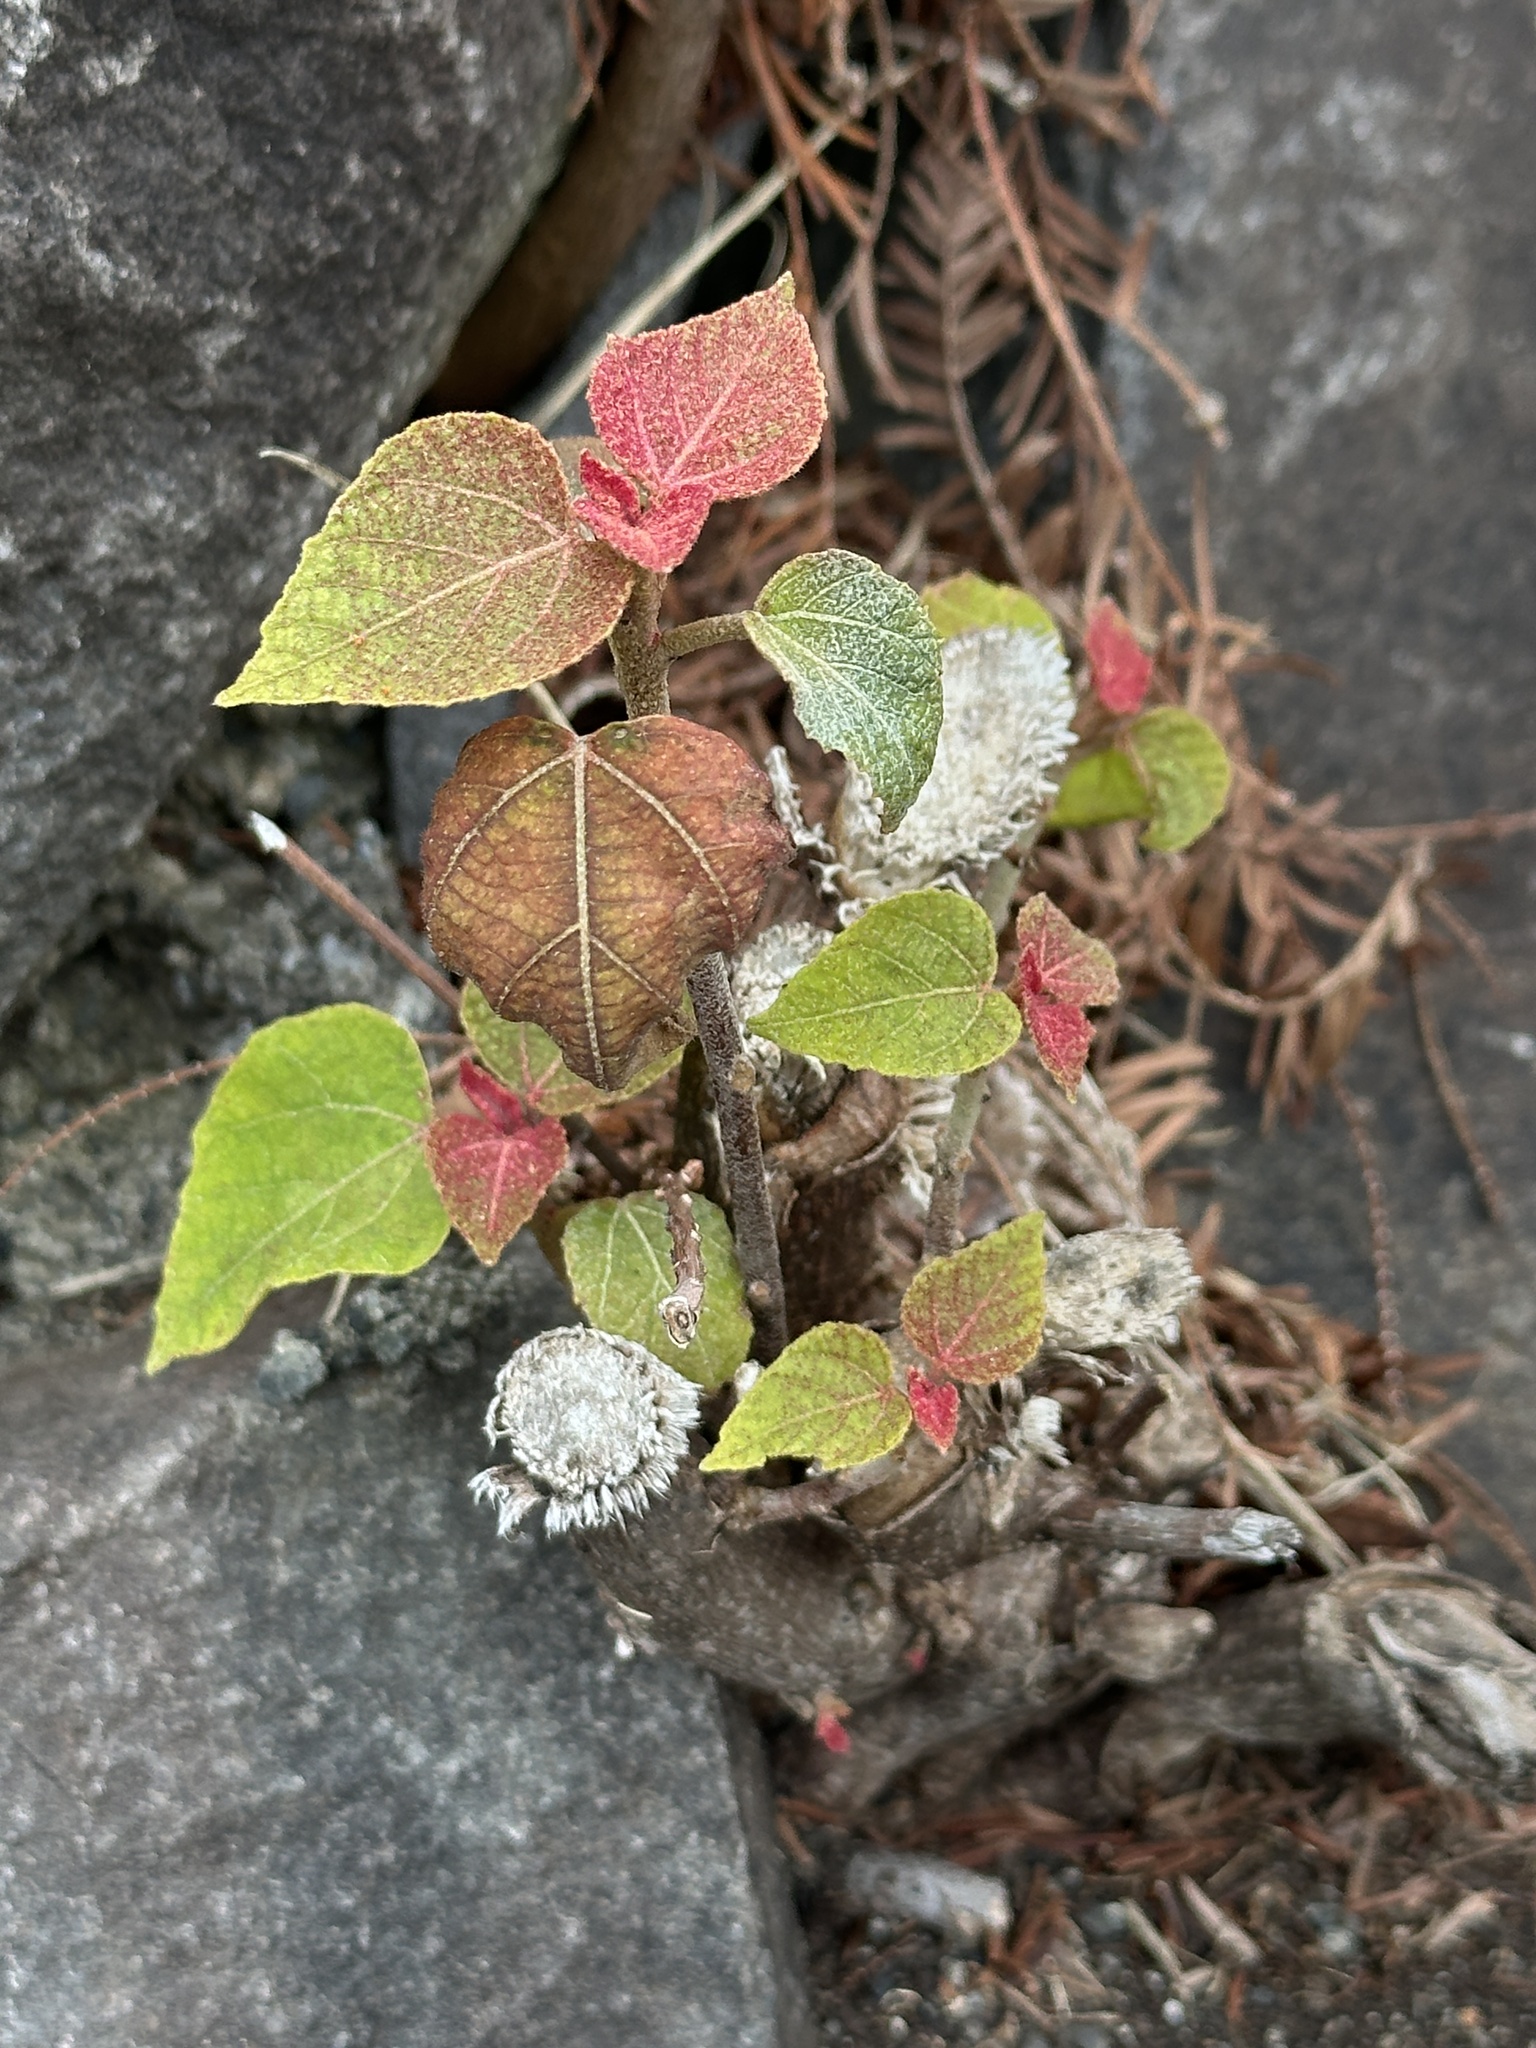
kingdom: Plantae
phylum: Tracheophyta
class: Magnoliopsida
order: Malpighiales
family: Euphorbiaceae
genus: Mallotus
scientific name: Mallotus japonicus
